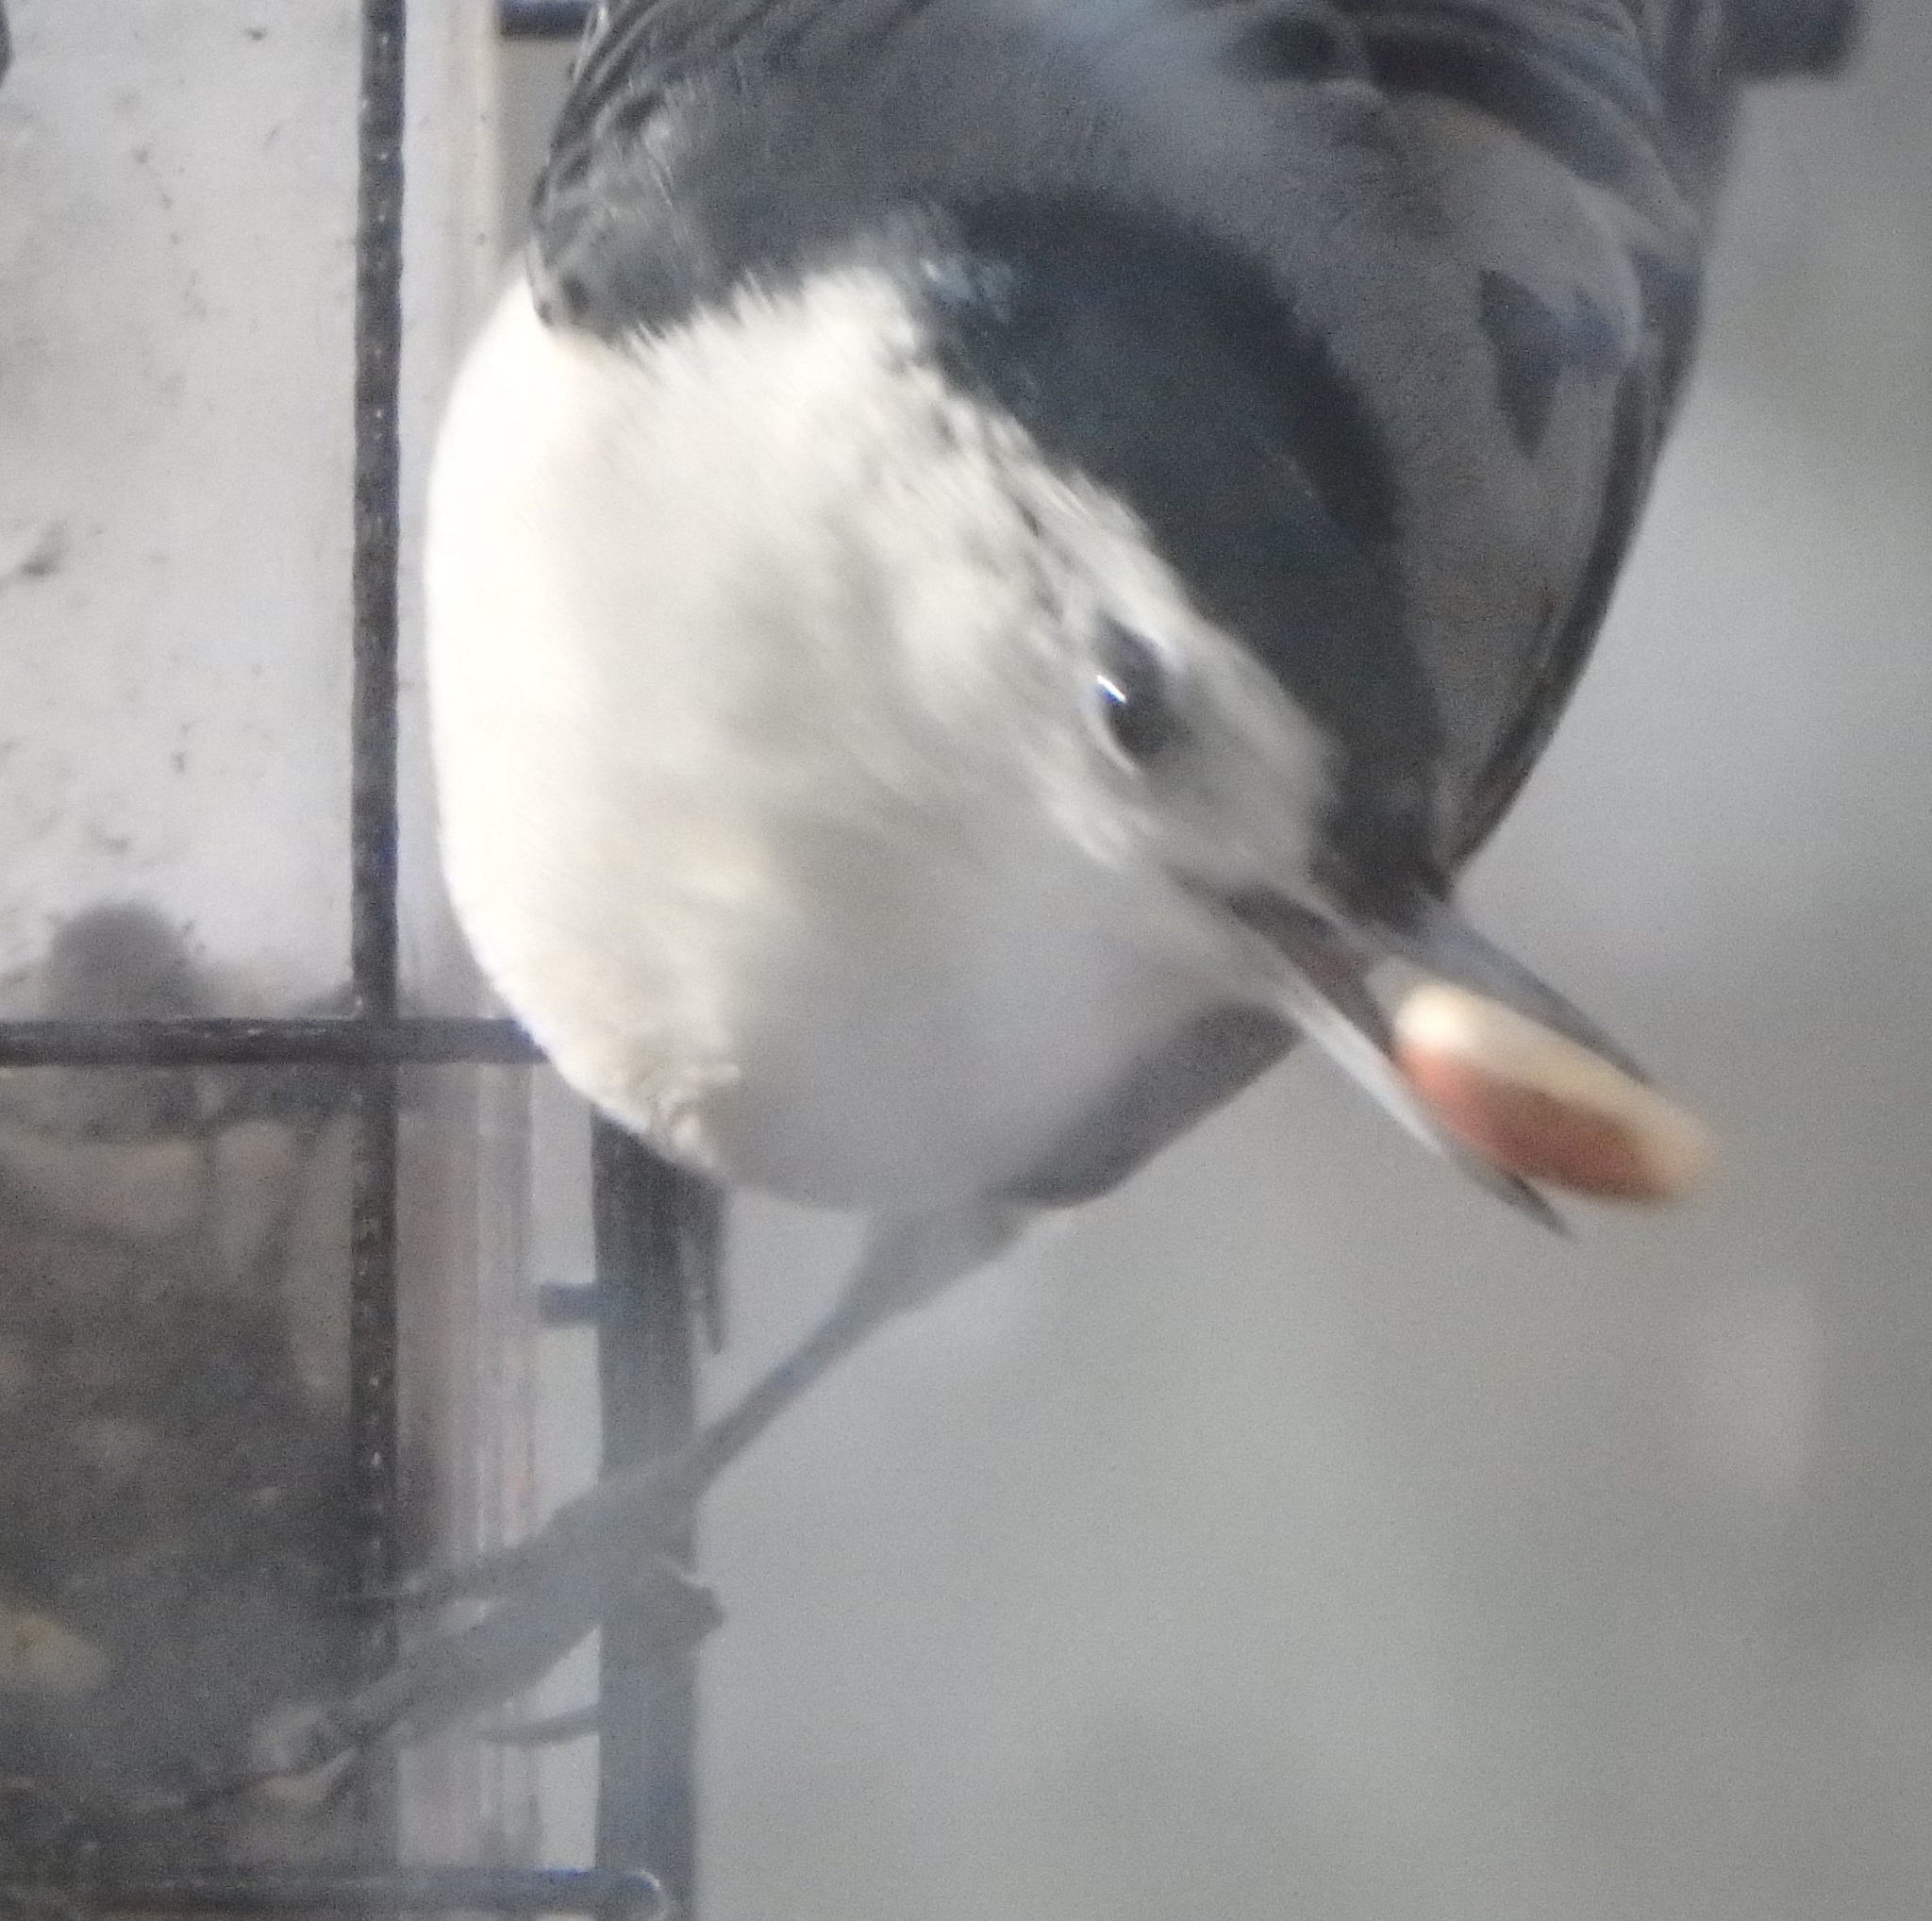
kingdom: Animalia
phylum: Chordata
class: Aves
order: Passeriformes
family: Sittidae
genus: Sitta
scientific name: Sitta carolinensis
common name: White-breasted nuthatch
